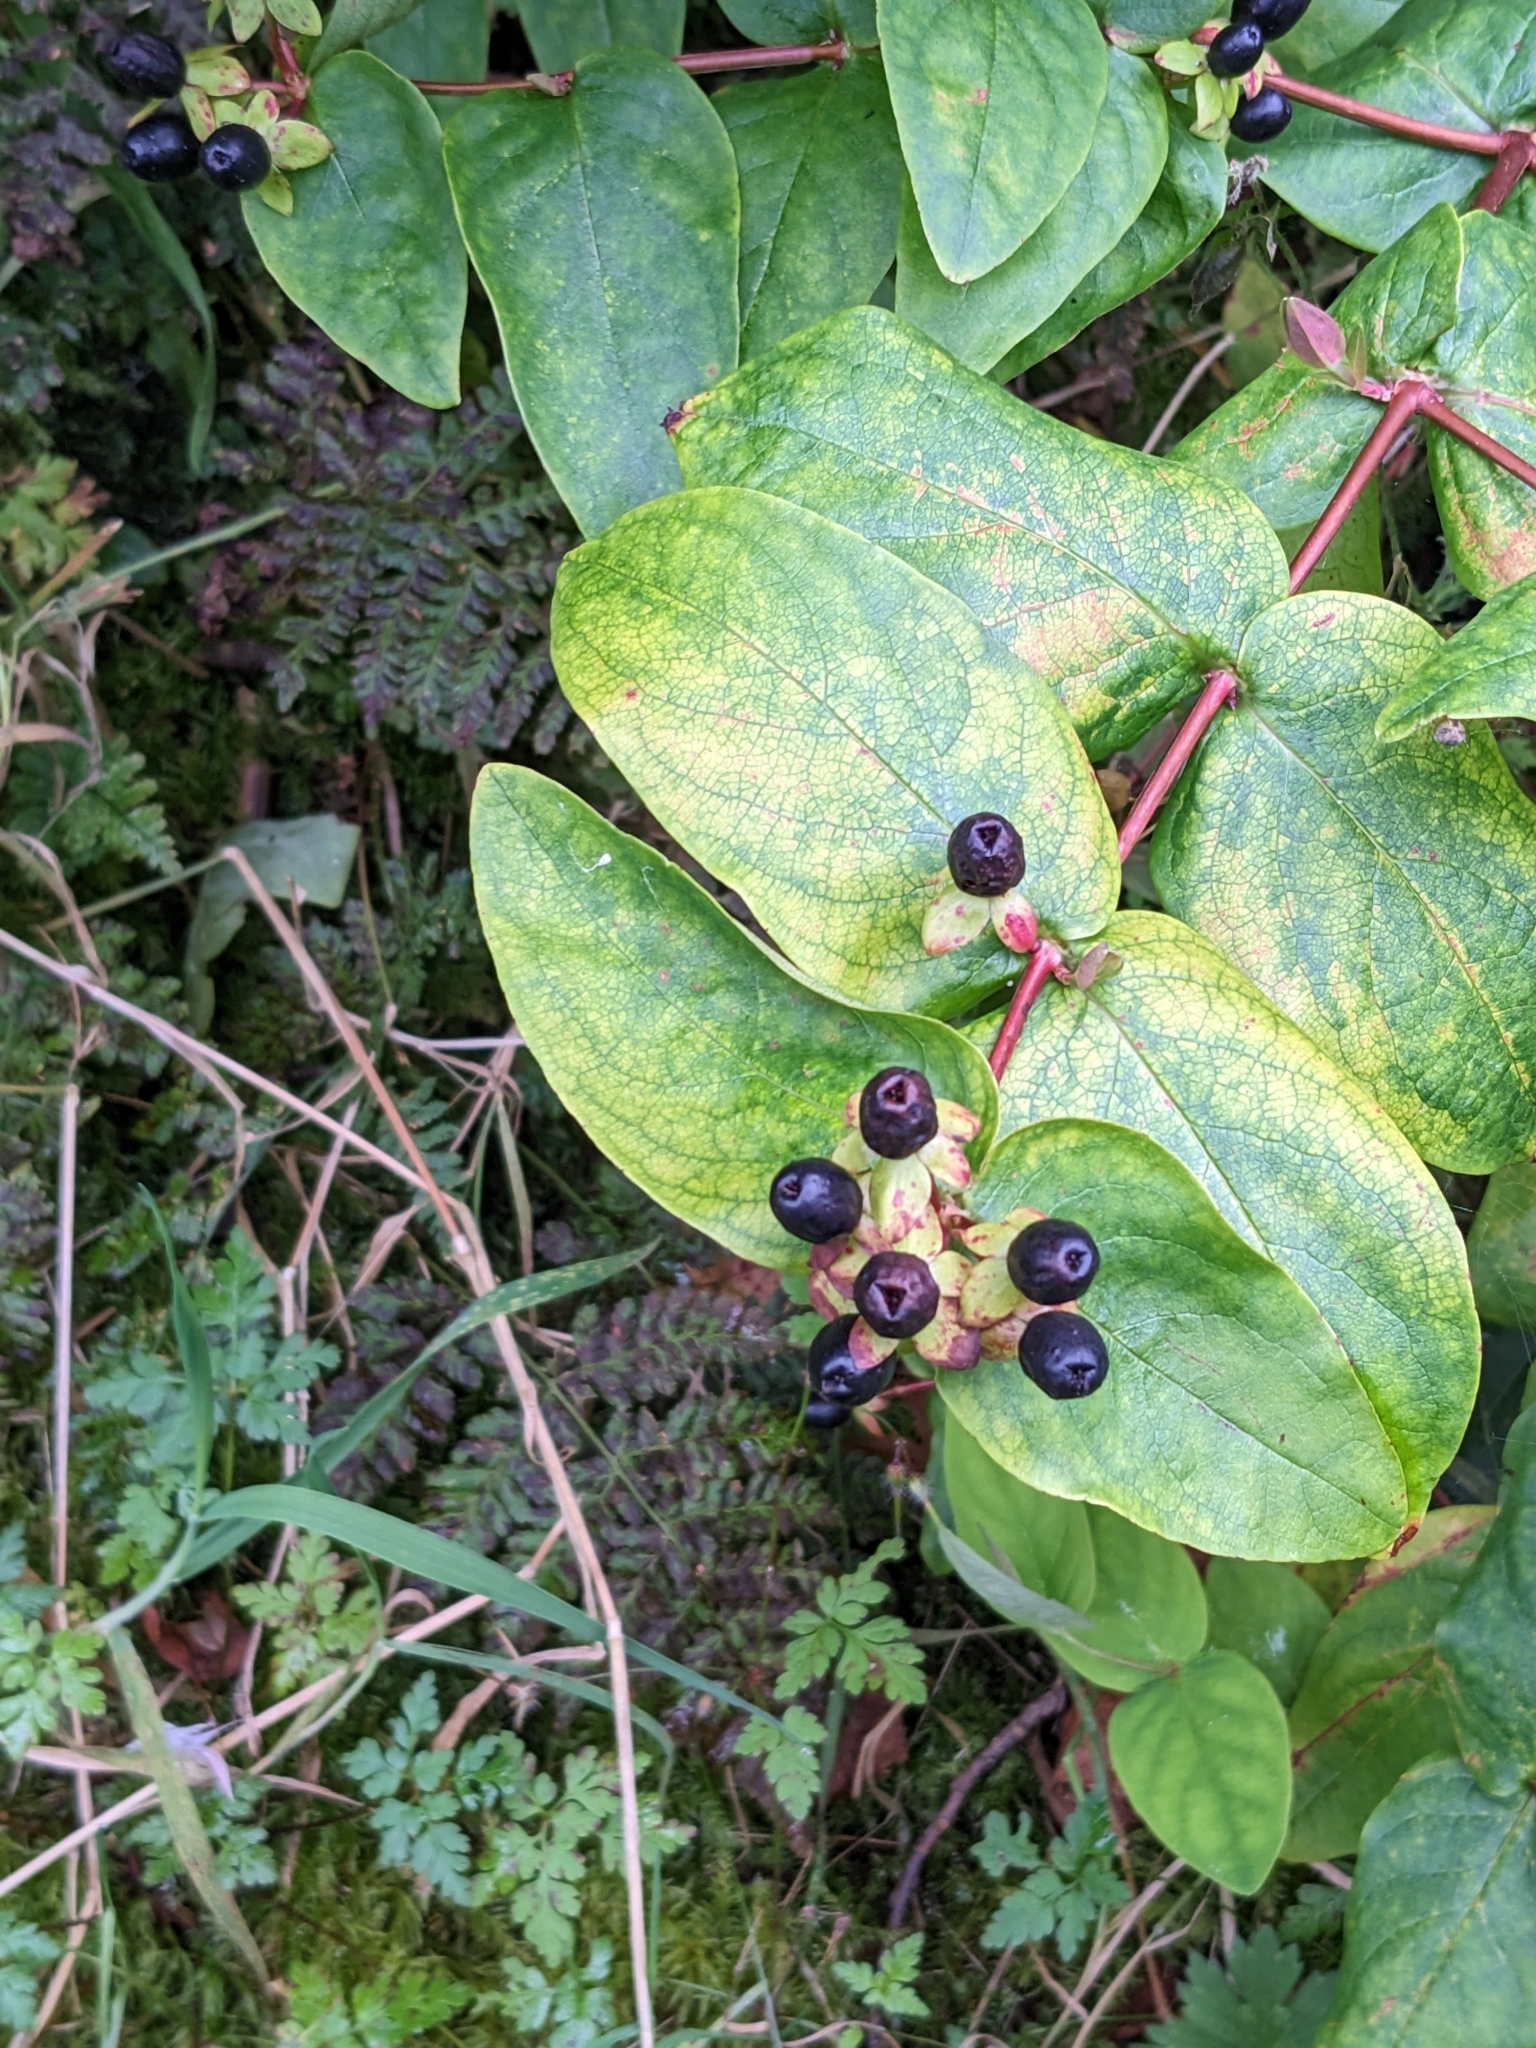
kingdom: Plantae
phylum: Tracheophyta
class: Magnoliopsida
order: Malpighiales
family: Hypericaceae
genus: Hypericum
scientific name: Hypericum androsaemum
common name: Sweet-amber
